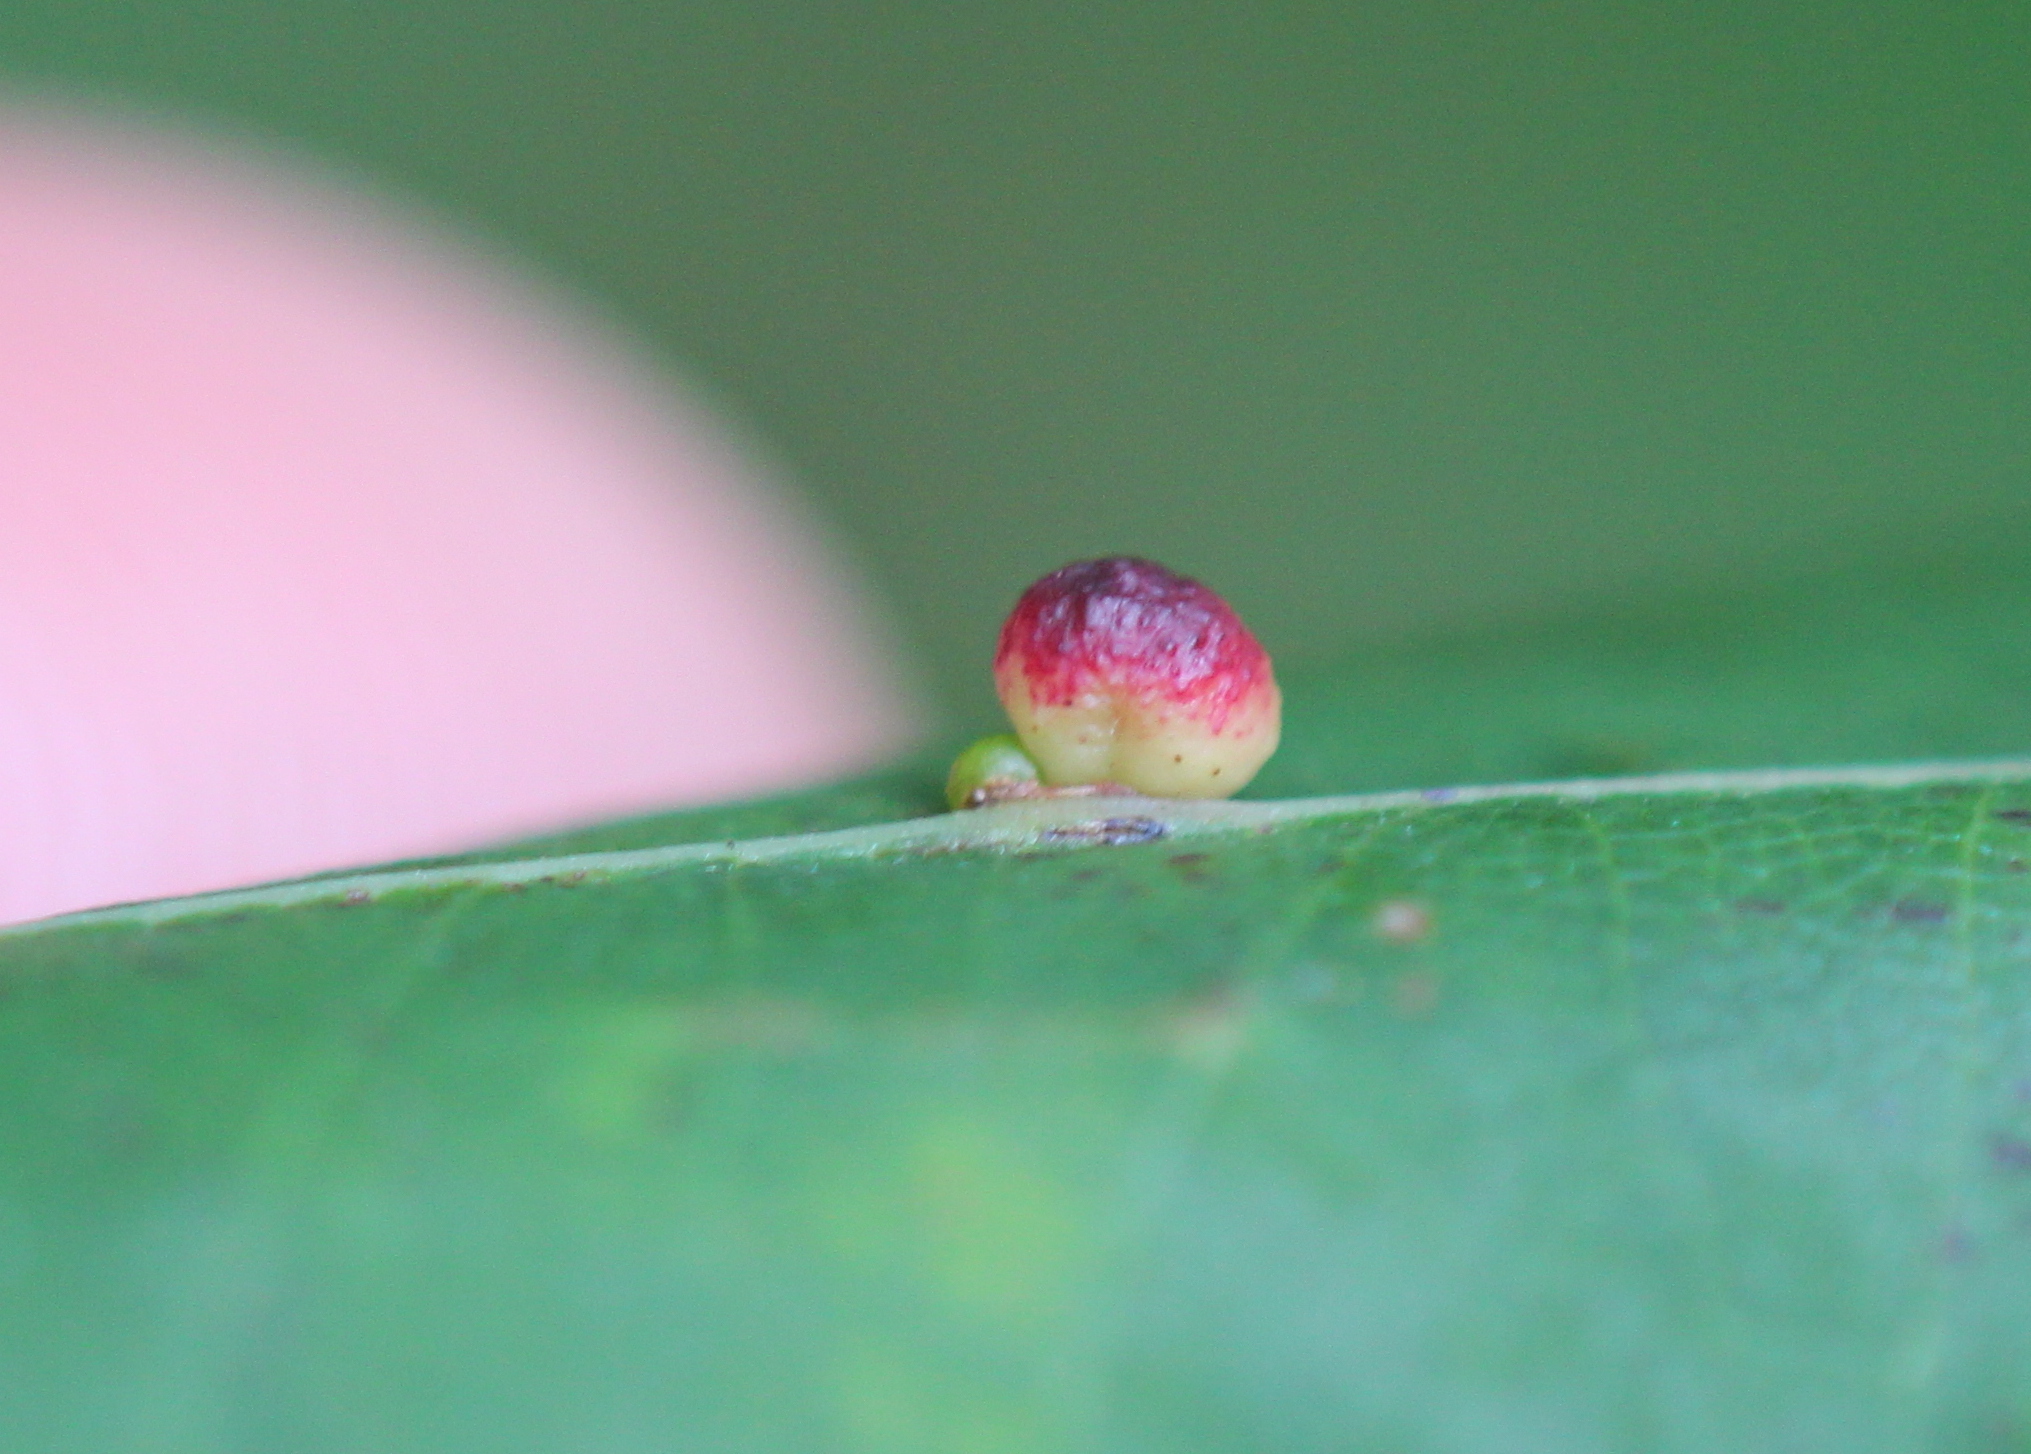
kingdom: Animalia
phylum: Arthropoda
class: Insecta
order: Hymenoptera
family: Cynipidae
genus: Zopheroteras
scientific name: Zopheroteras
